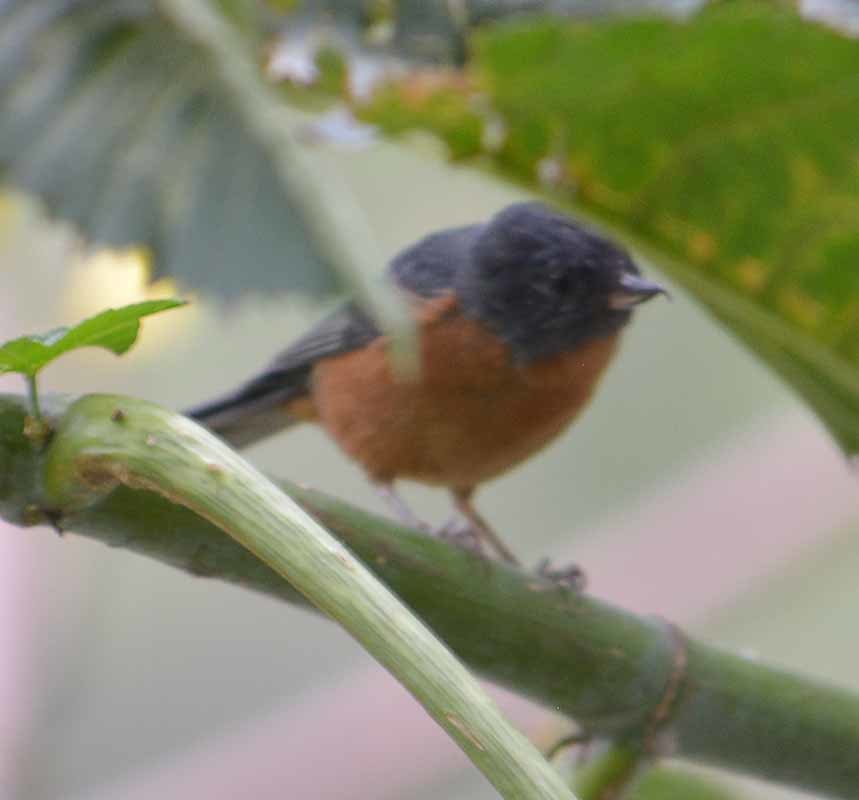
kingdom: Animalia
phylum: Chordata
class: Aves
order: Passeriformes
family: Thraupidae
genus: Diglossa
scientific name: Diglossa baritula
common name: Cinnamon-bellied flowerpiercer
